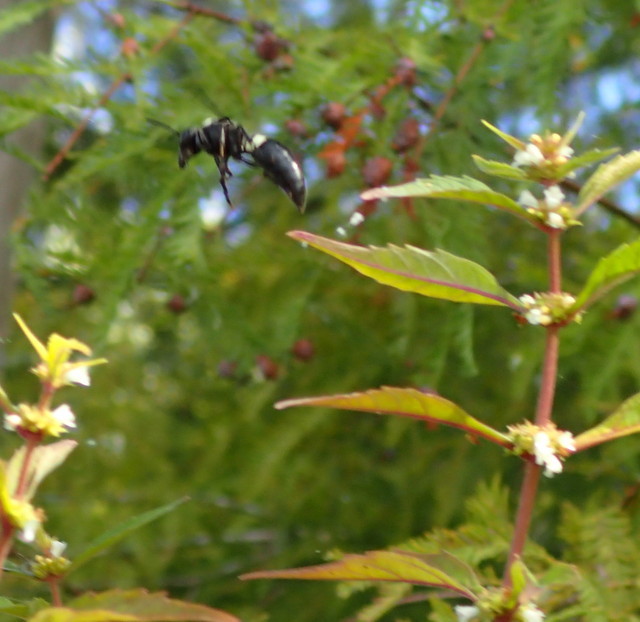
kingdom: Animalia
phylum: Arthropoda
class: Insecta
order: Hymenoptera
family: Eumenidae
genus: Monobia
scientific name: Monobia quadridens
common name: Four-toothed mason wasp
